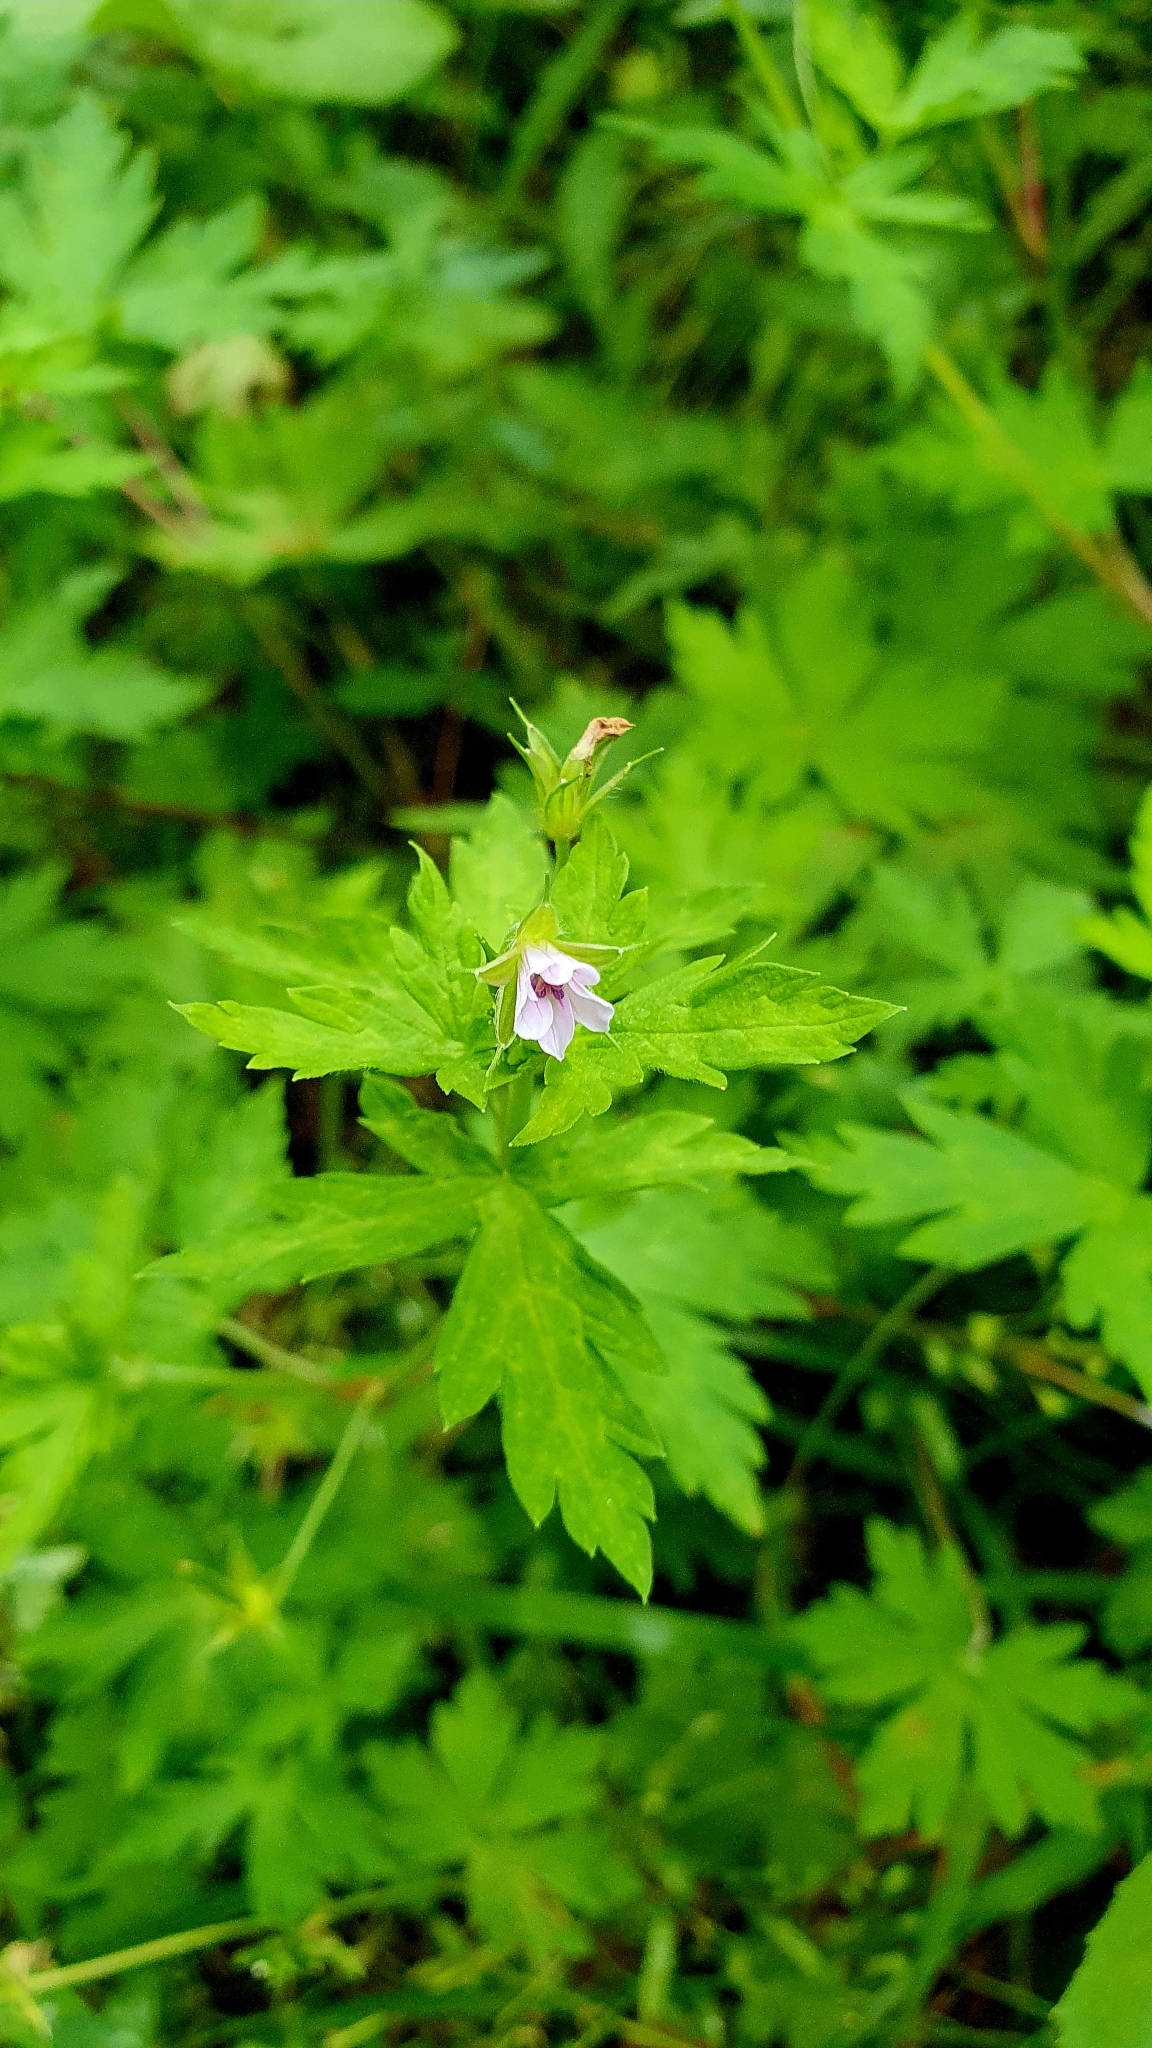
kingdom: Plantae
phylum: Tracheophyta
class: Magnoliopsida
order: Geraniales
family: Geraniaceae
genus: Geranium
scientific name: Geranium sibiricum
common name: Siberian crane's-bill
